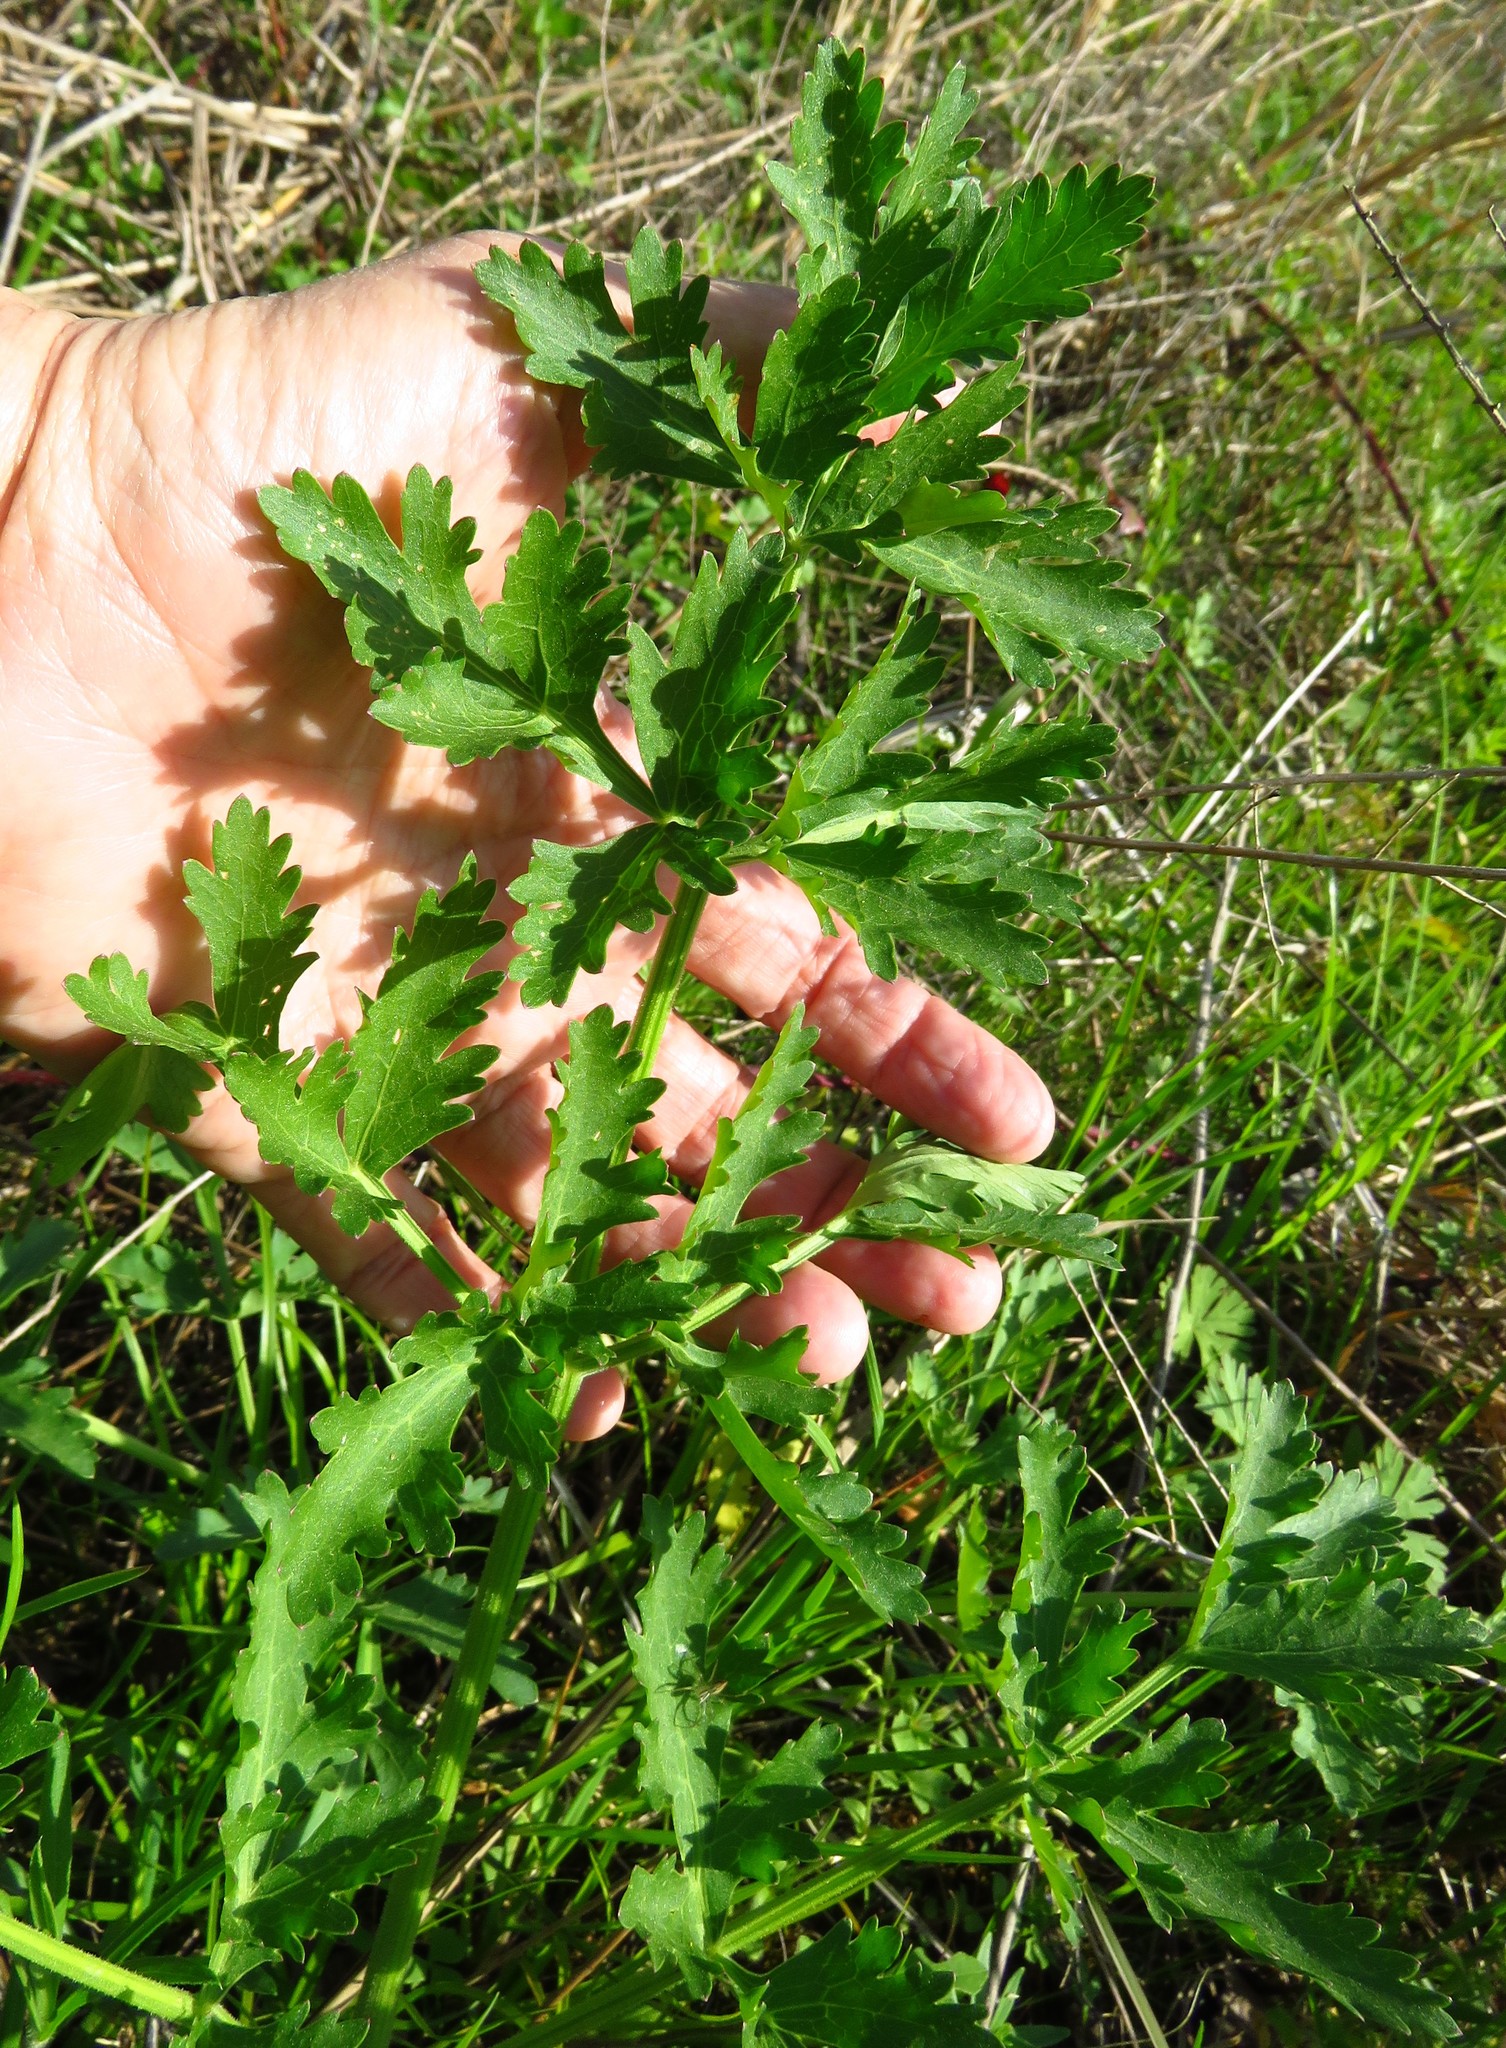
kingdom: Plantae
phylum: Tracheophyta
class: Magnoliopsida
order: Apiales
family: Apiaceae
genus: Polytaenia
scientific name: Polytaenia texana
